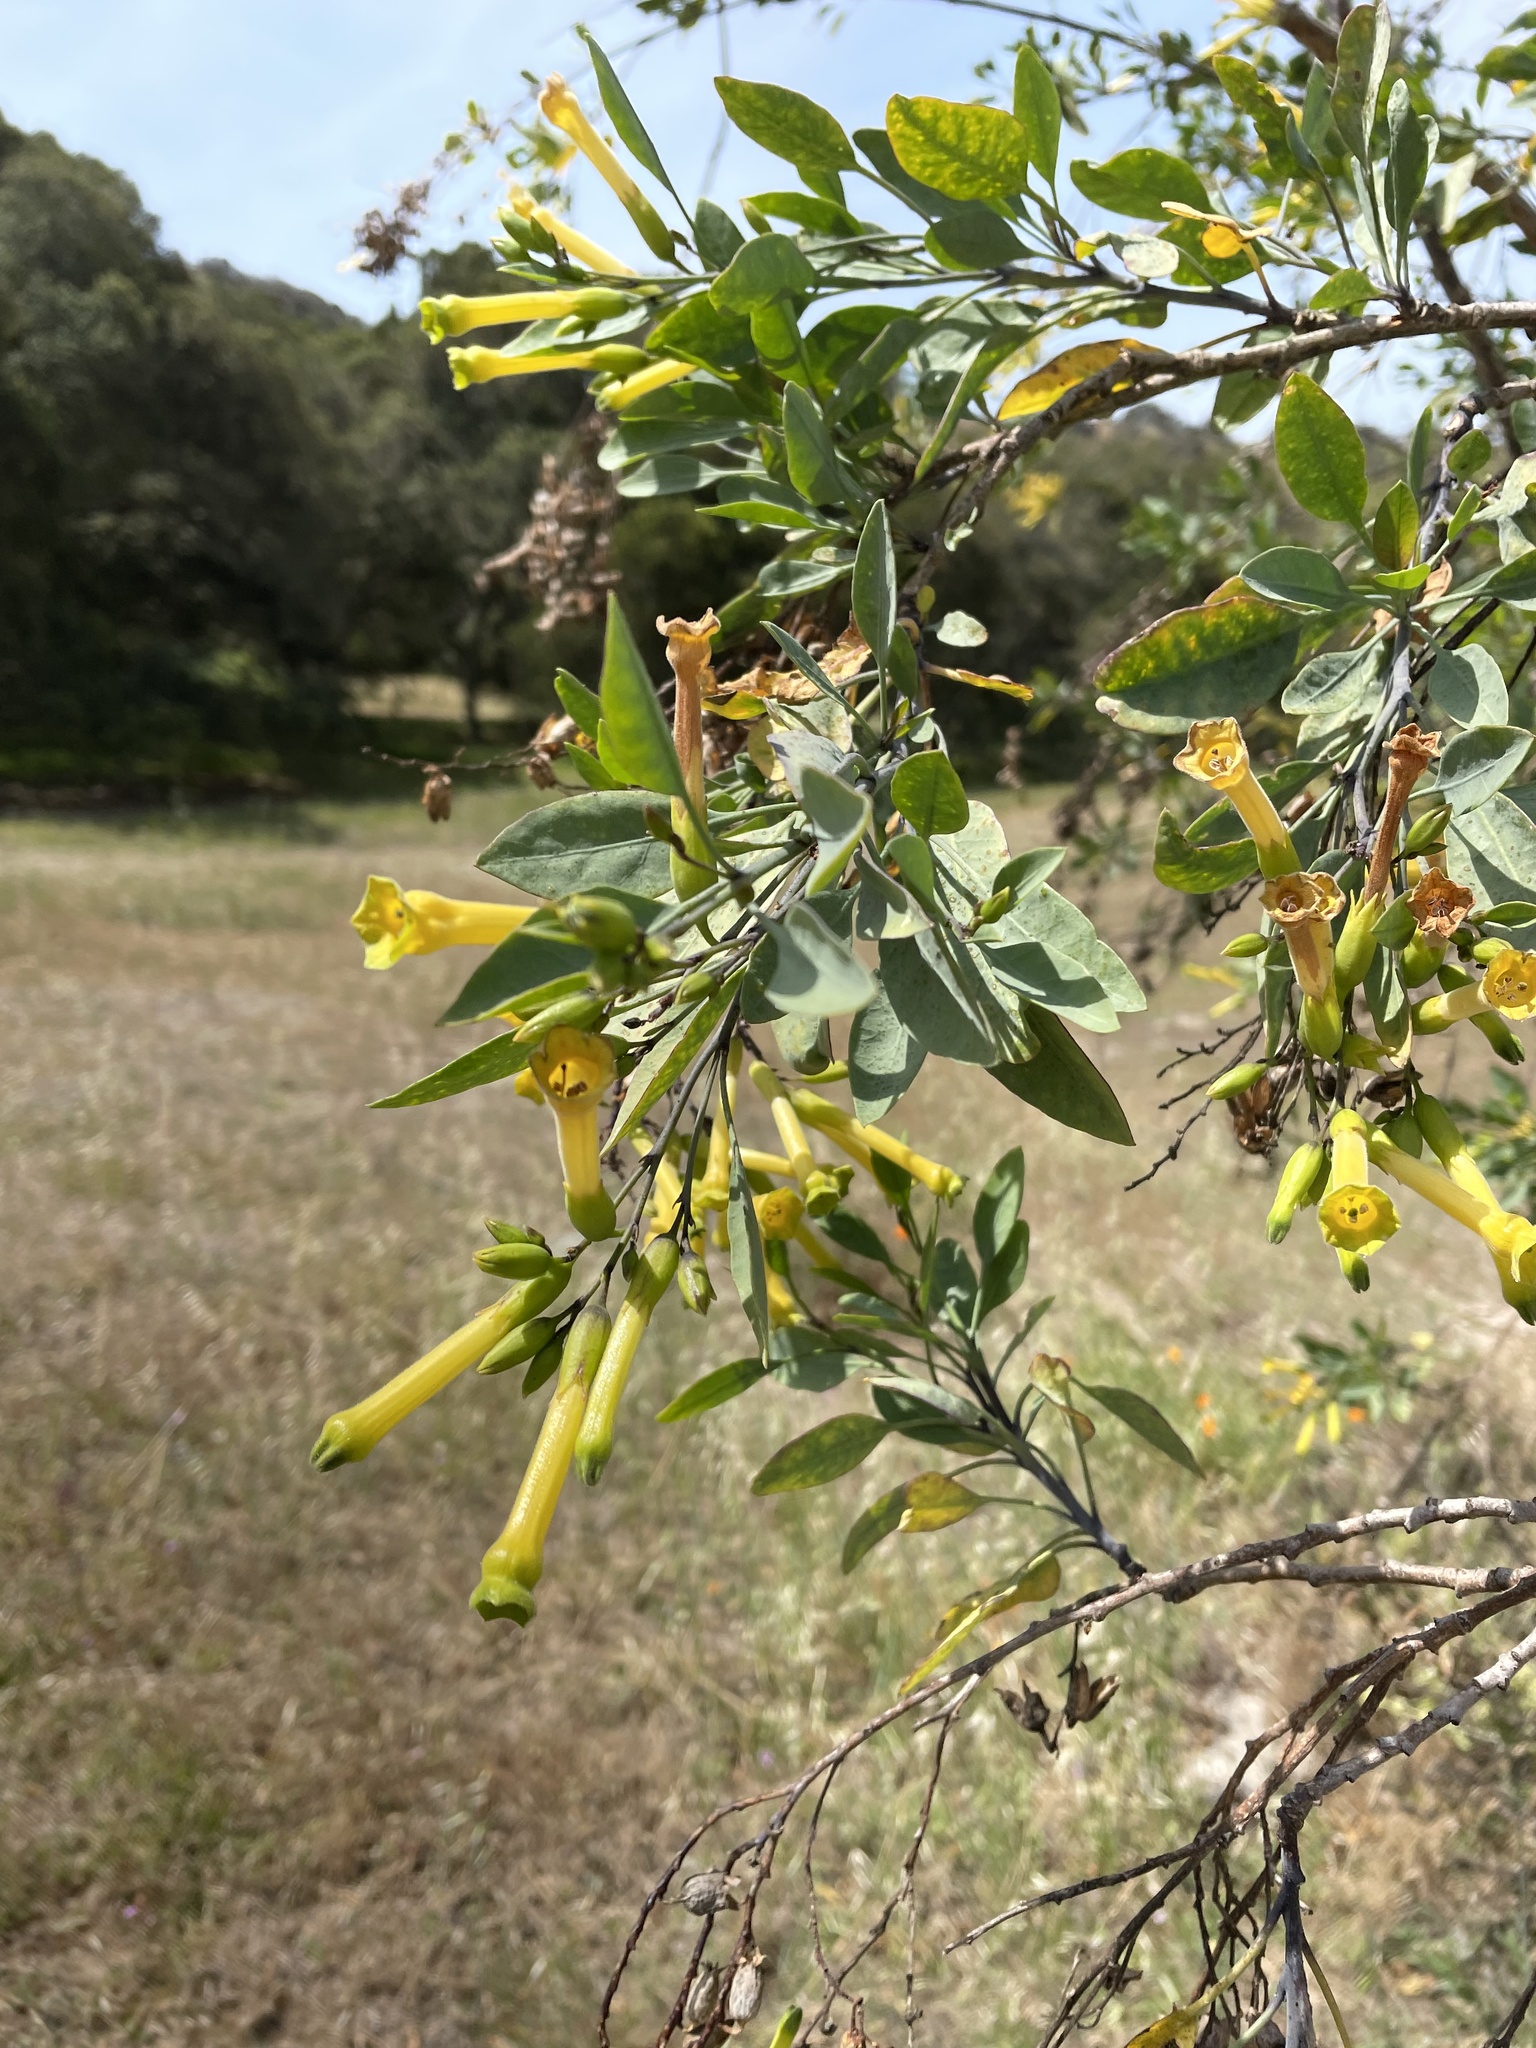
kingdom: Plantae
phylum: Tracheophyta
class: Magnoliopsida
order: Solanales
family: Solanaceae
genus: Nicotiana
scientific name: Nicotiana glauca
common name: Tree tobacco
